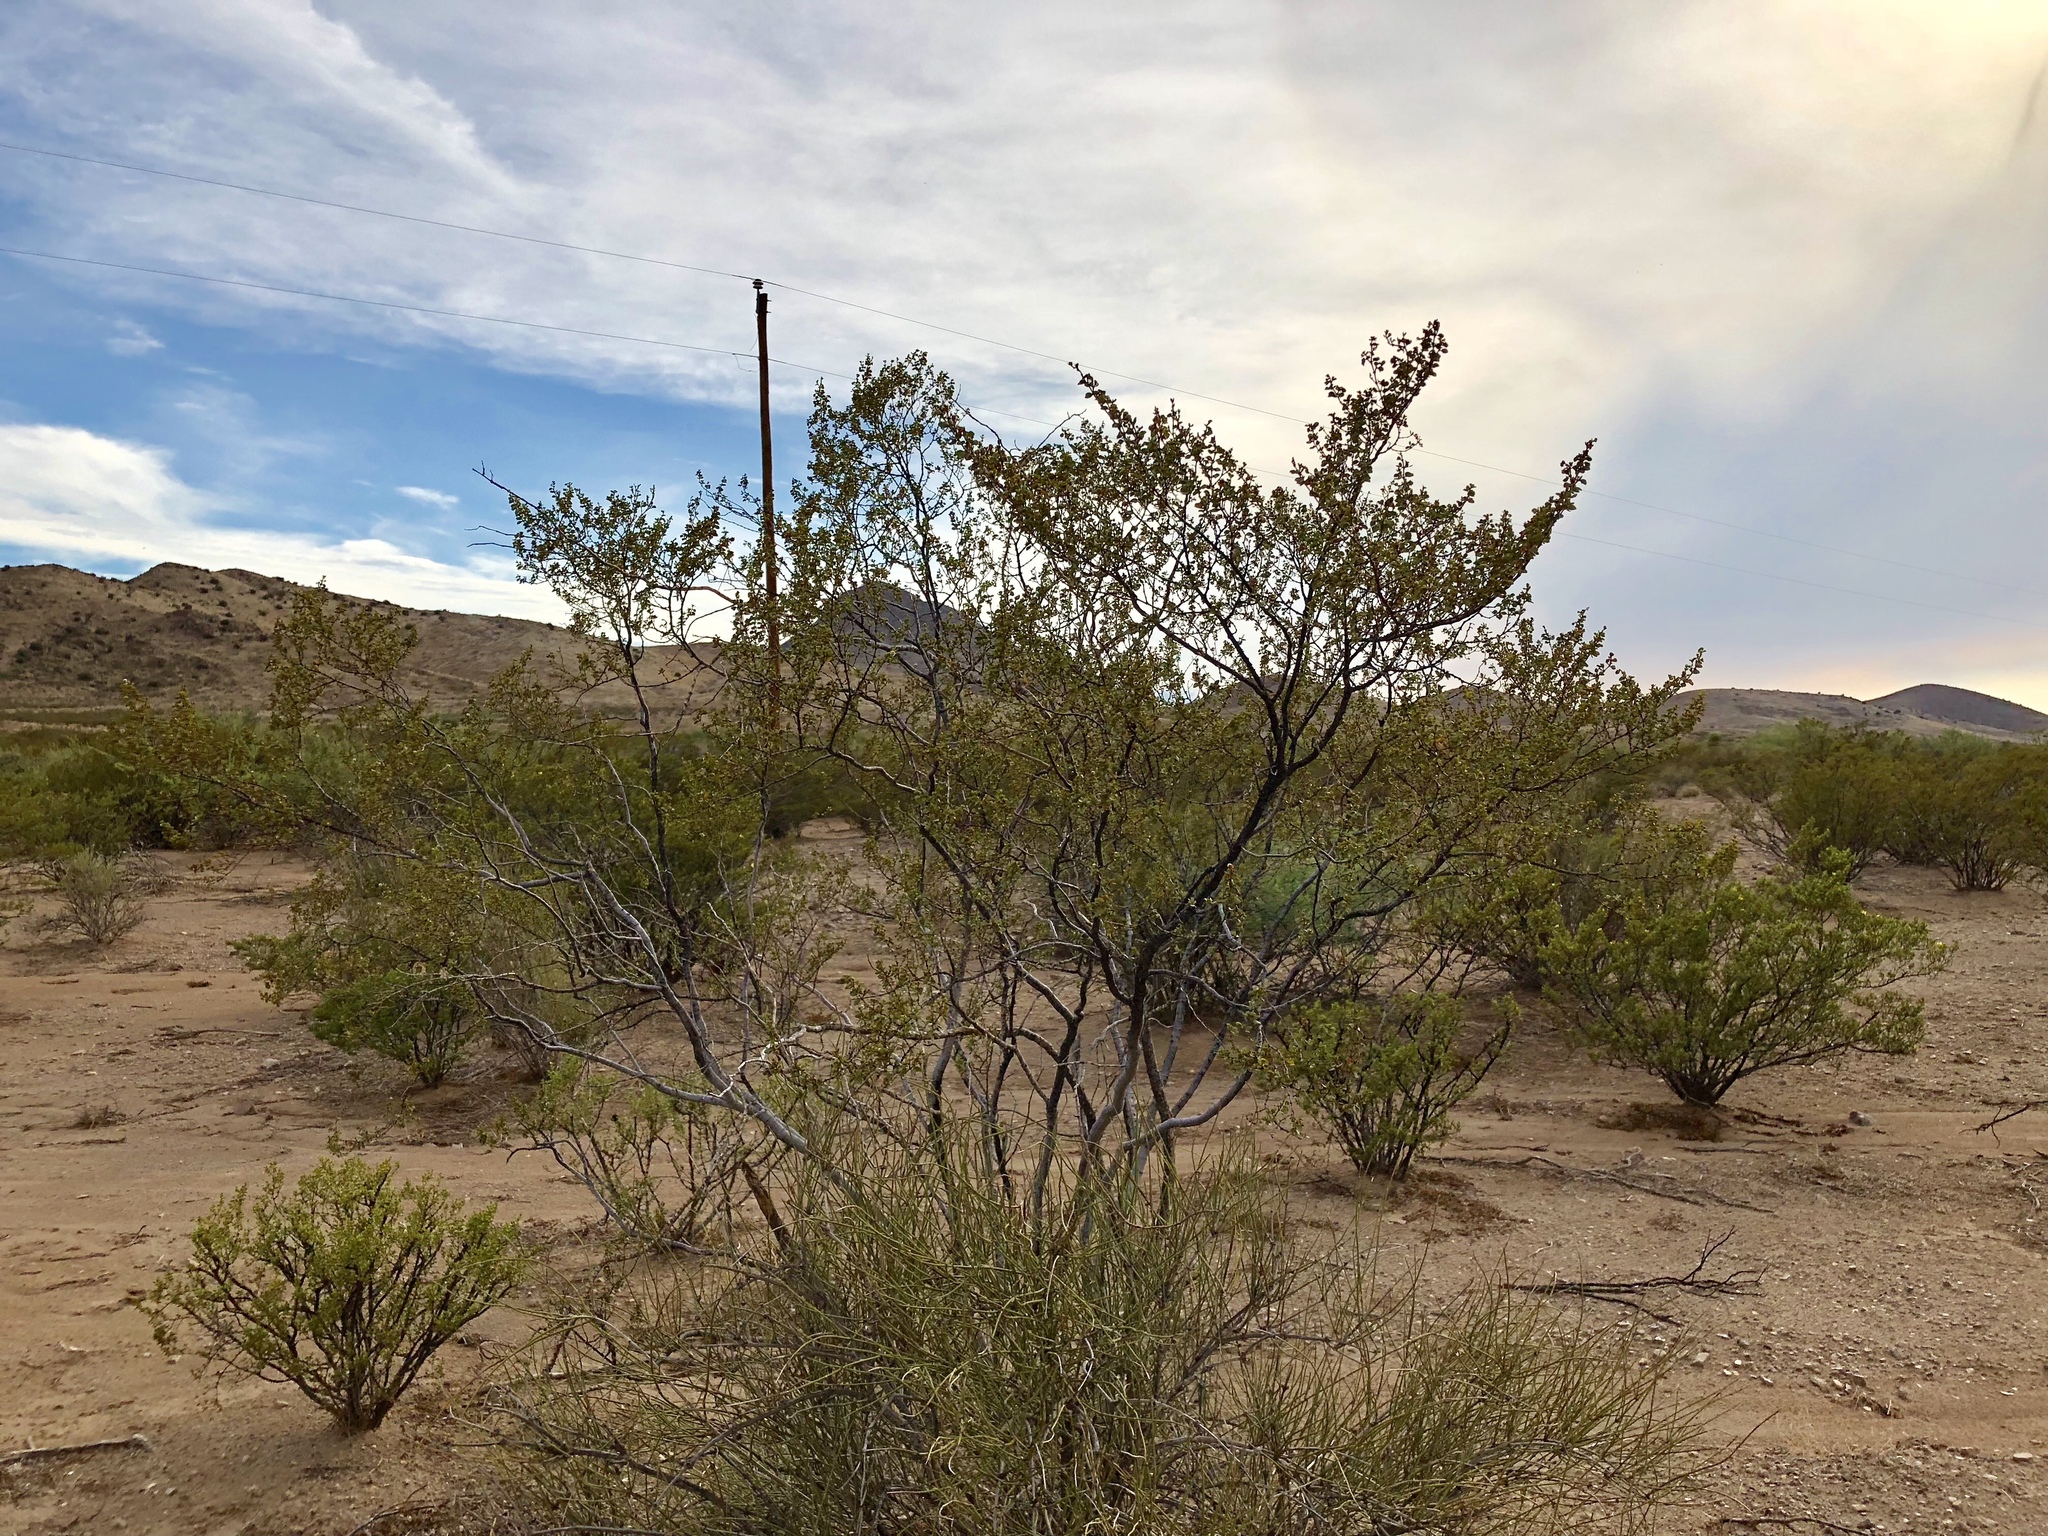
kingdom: Plantae
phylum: Tracheophyta
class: Magnoliopsida
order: Zygophyllales
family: Zygophyllaceae
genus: Larrea
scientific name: Larrea tridentata
